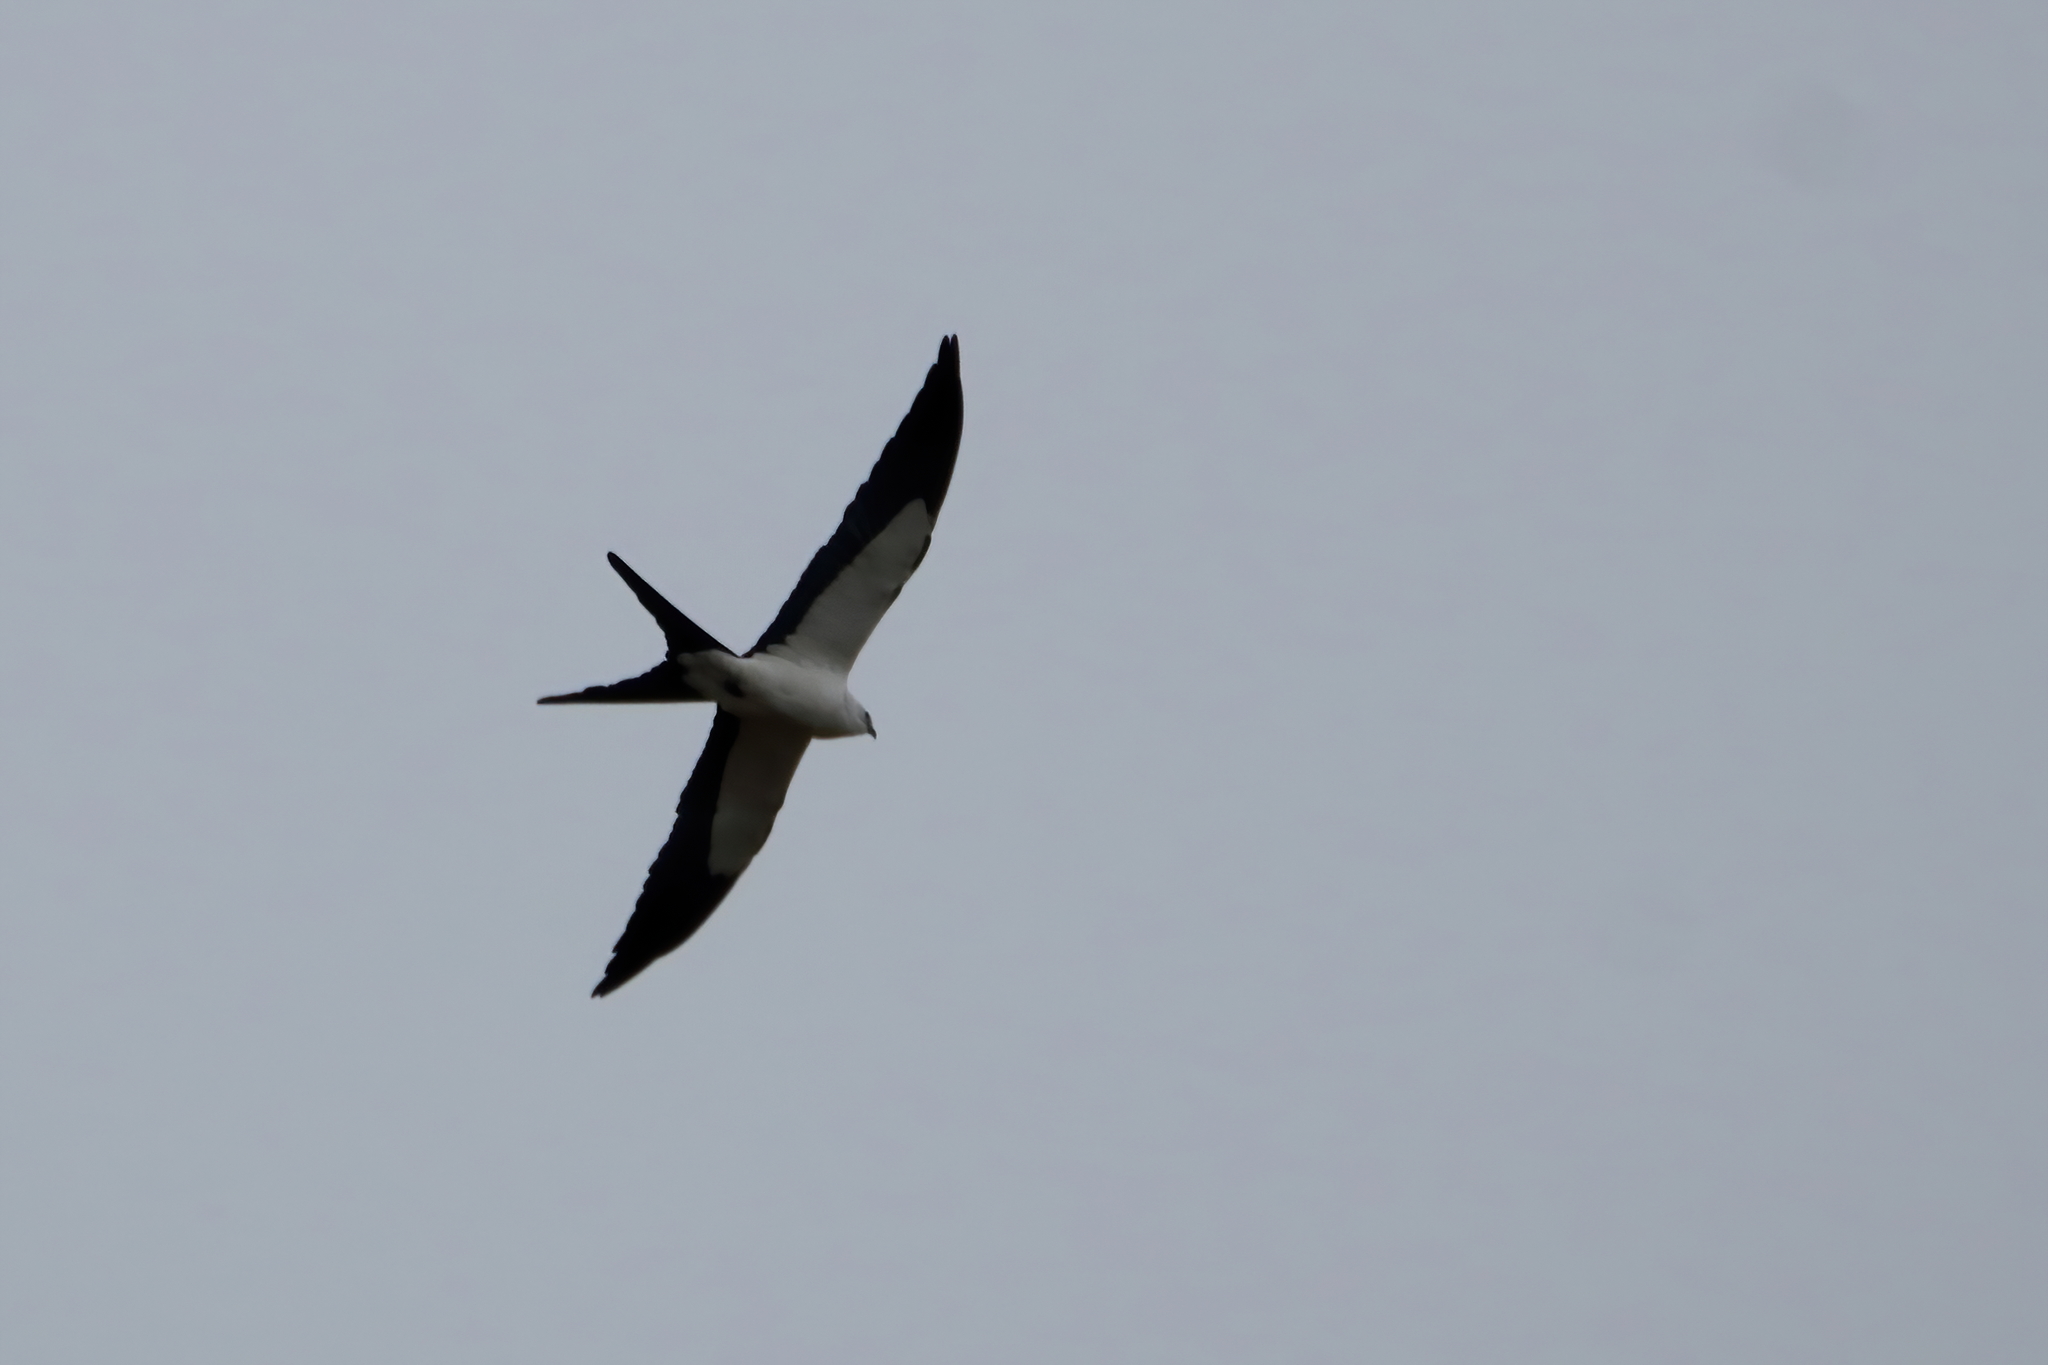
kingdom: Animalia
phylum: Chordata
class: Aves
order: Accipitriformes
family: Accipitridae
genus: Elanoides
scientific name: Elanoides forficatus
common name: Swallow-tailed kite
